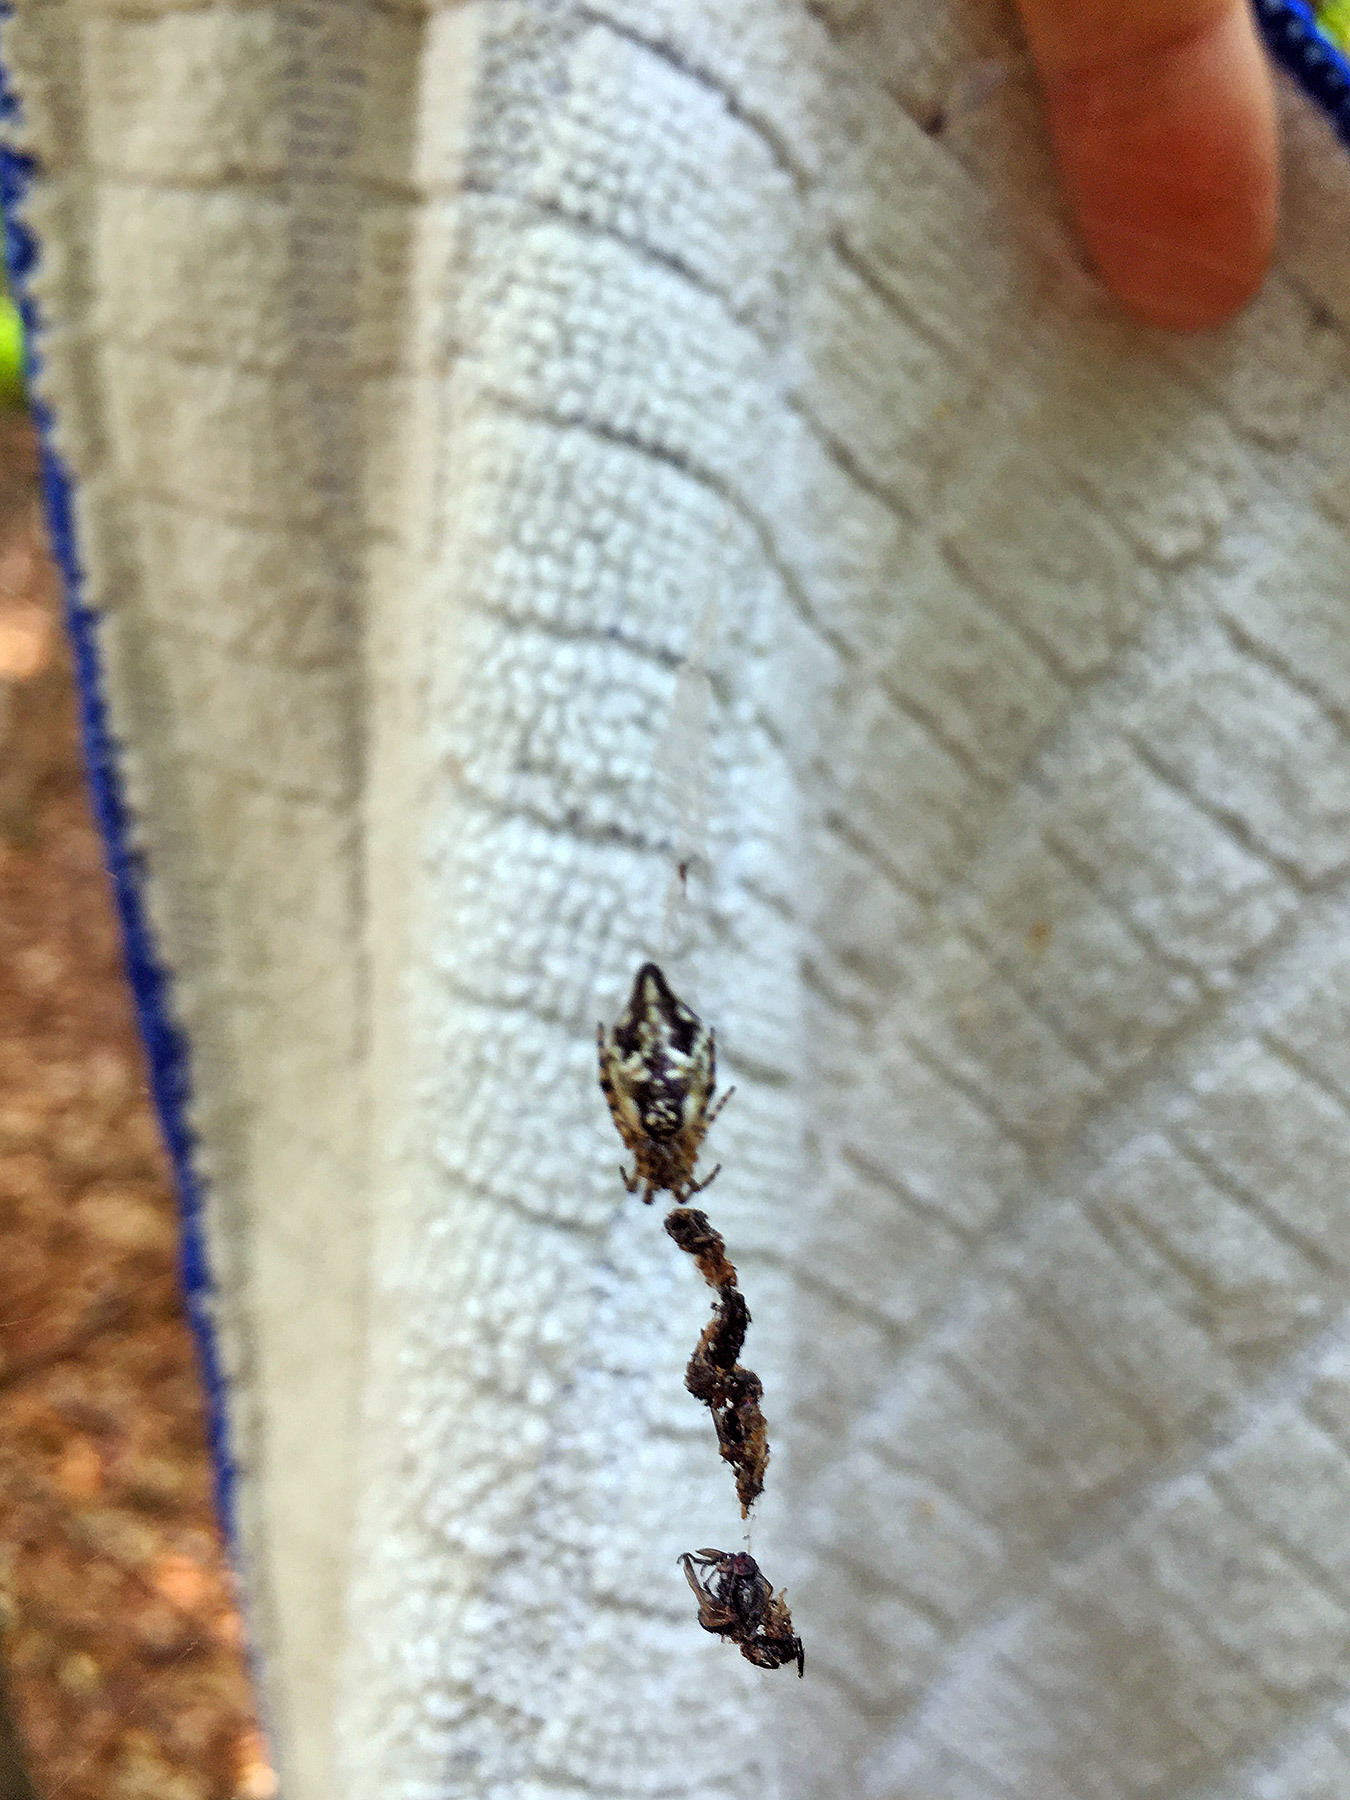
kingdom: Animalia
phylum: Arthropoda
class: Arachnida
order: Araneae
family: Araneidae
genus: Cyclosa
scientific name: Cyclosa conica
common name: Conical trashline orbweaver
